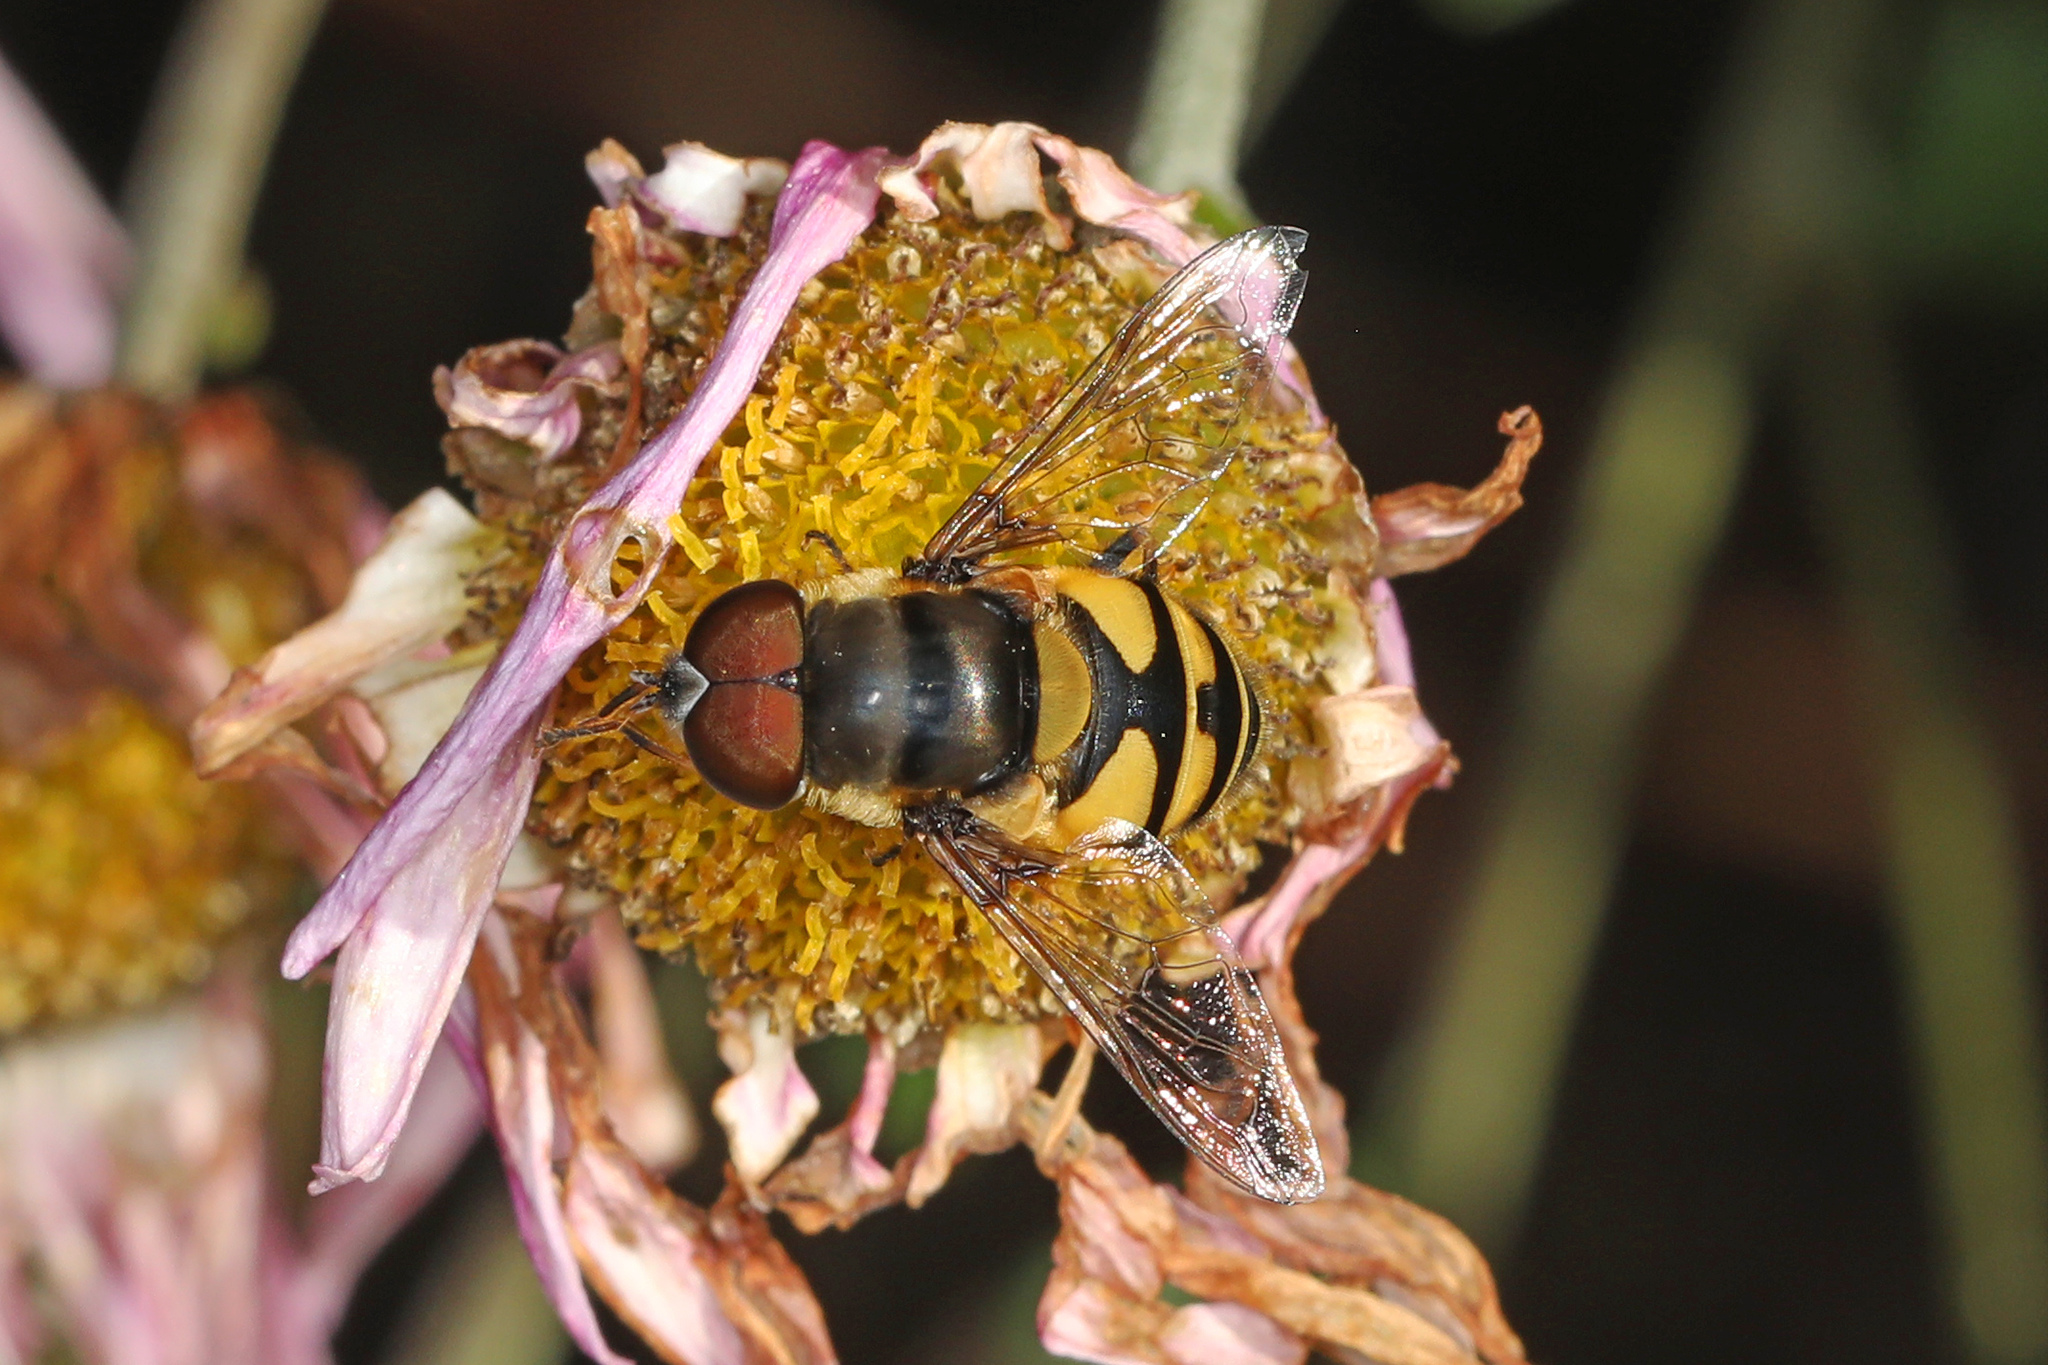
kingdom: Animalia
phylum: Arthropoda
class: Insecta
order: Diptera
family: Syrphidae
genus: Eristalis
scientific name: Eristalis transversa
